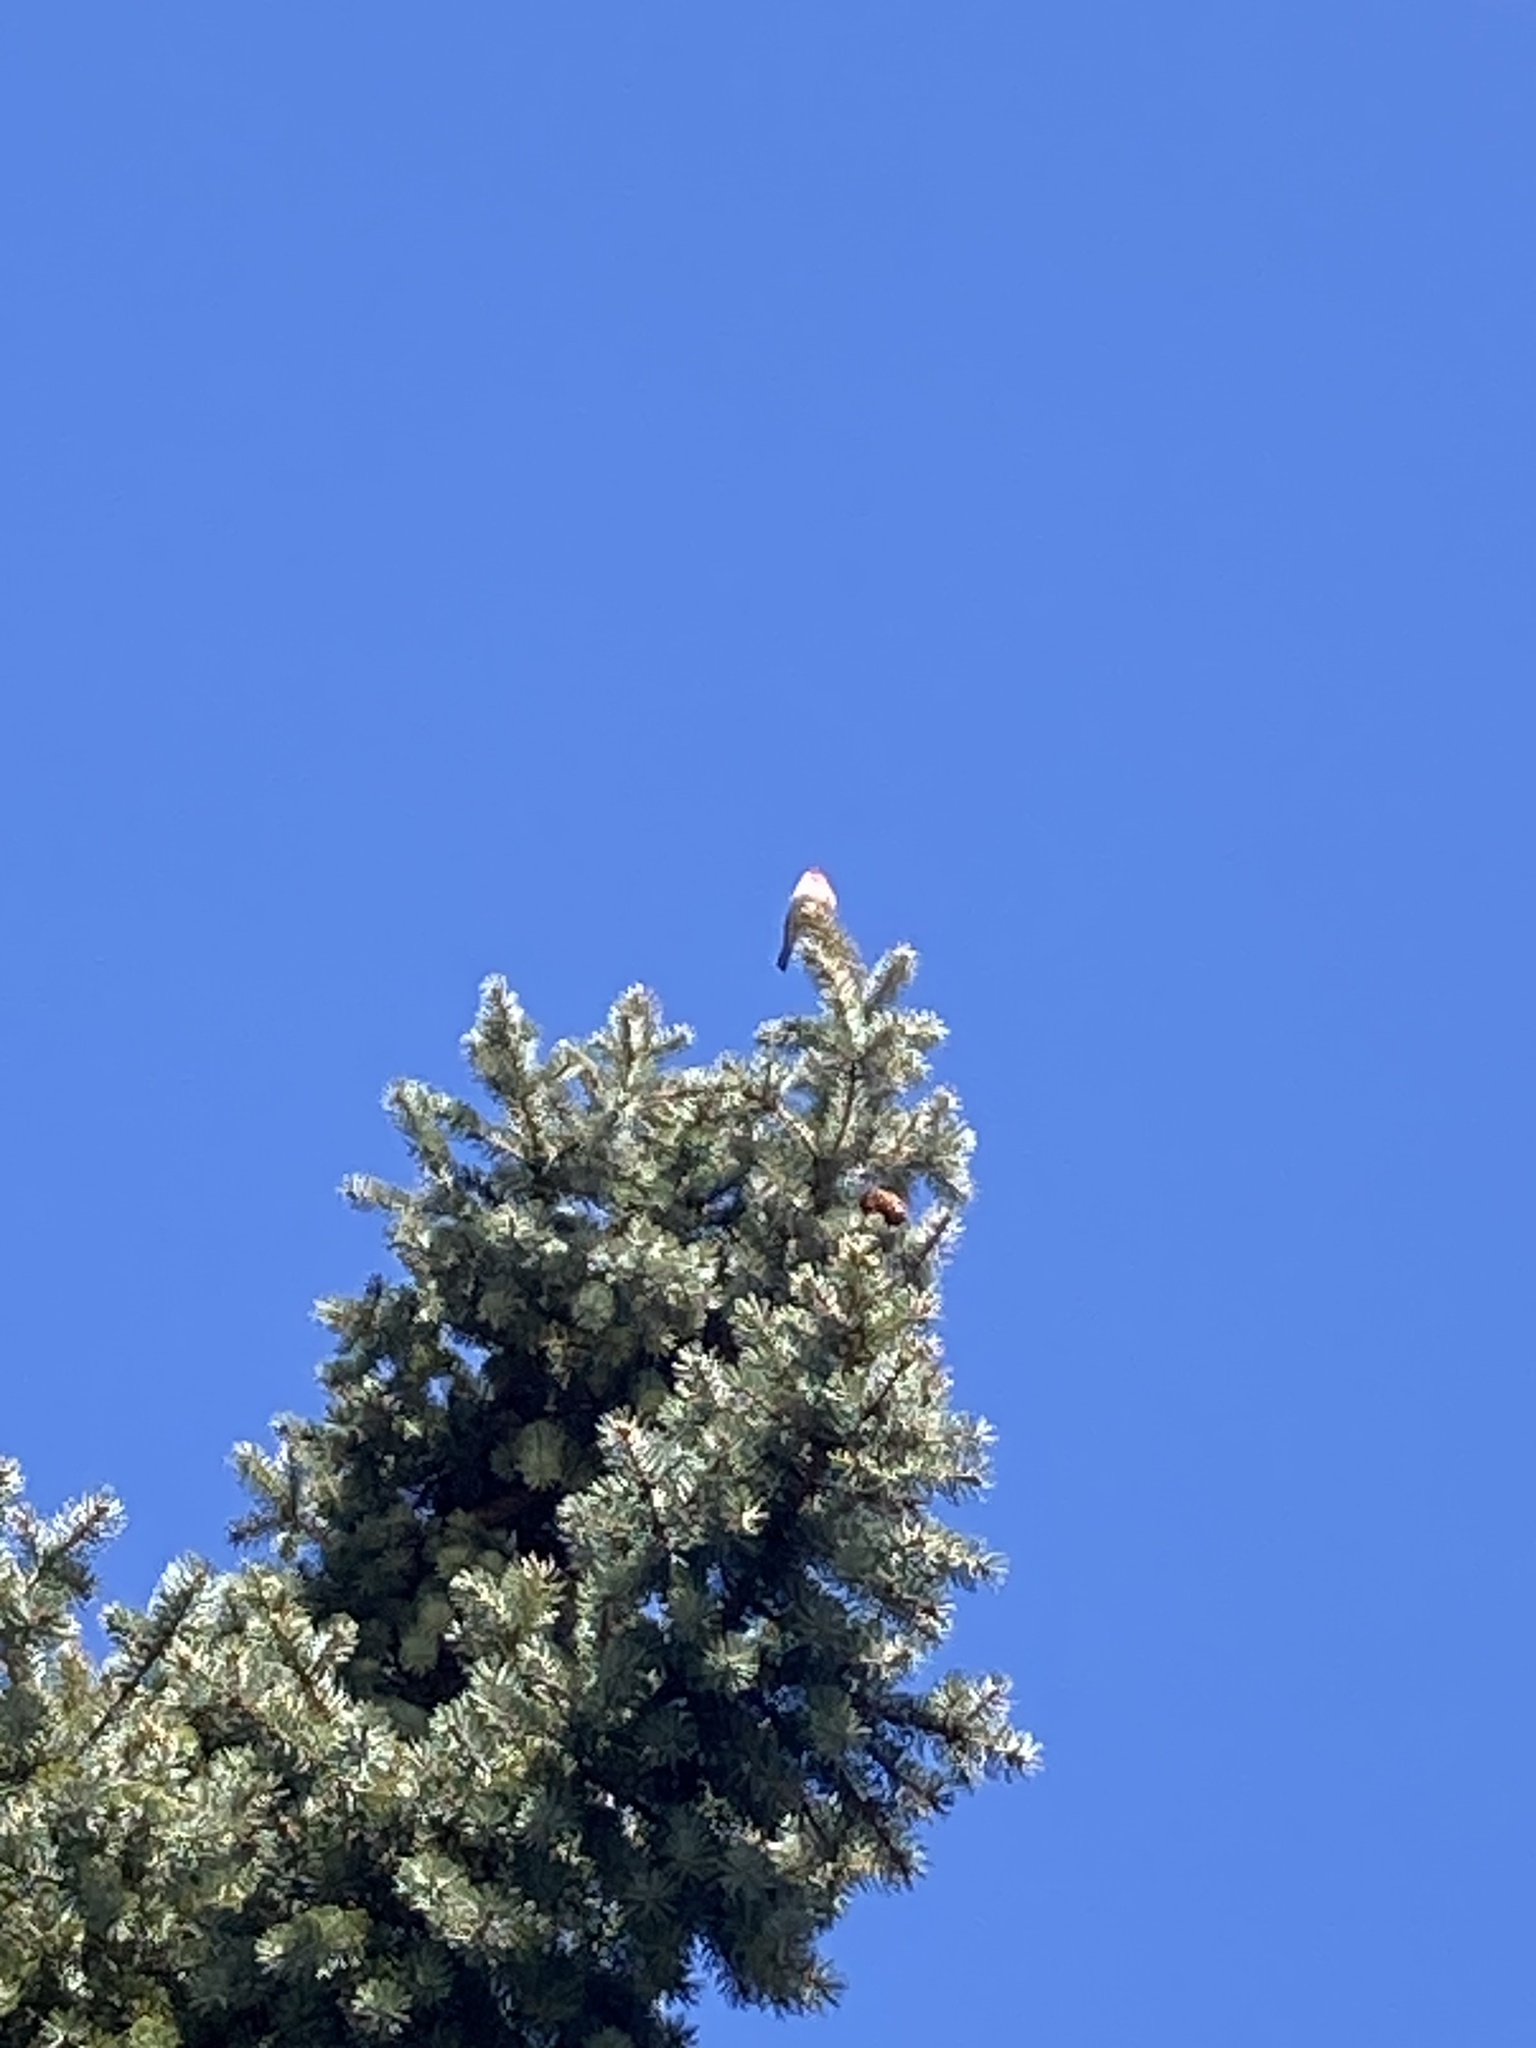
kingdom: Animalia
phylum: Chordata
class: Aves
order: Passeriformes
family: Fringillidae
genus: Haemorhous
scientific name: Haemorhous mexicanus
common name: House finch
